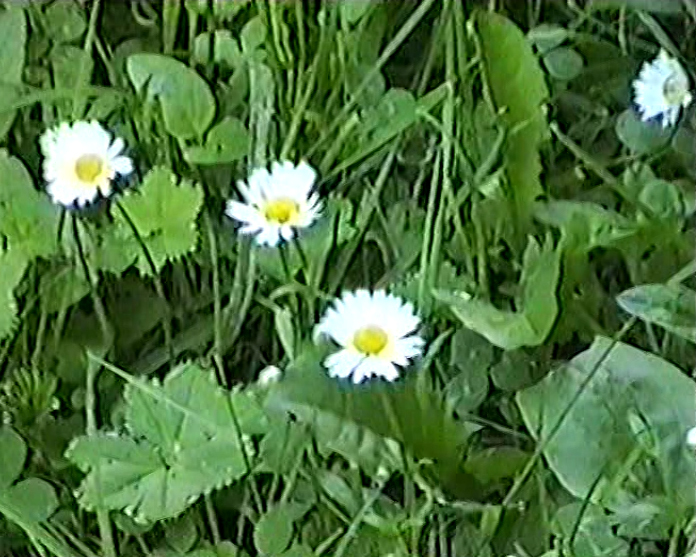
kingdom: Plantae
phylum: Tracheophyta
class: Magnoliopsida
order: Asterales
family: Asteraceae
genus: Bellis
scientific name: Bellis perennis
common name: Lawndaisy
